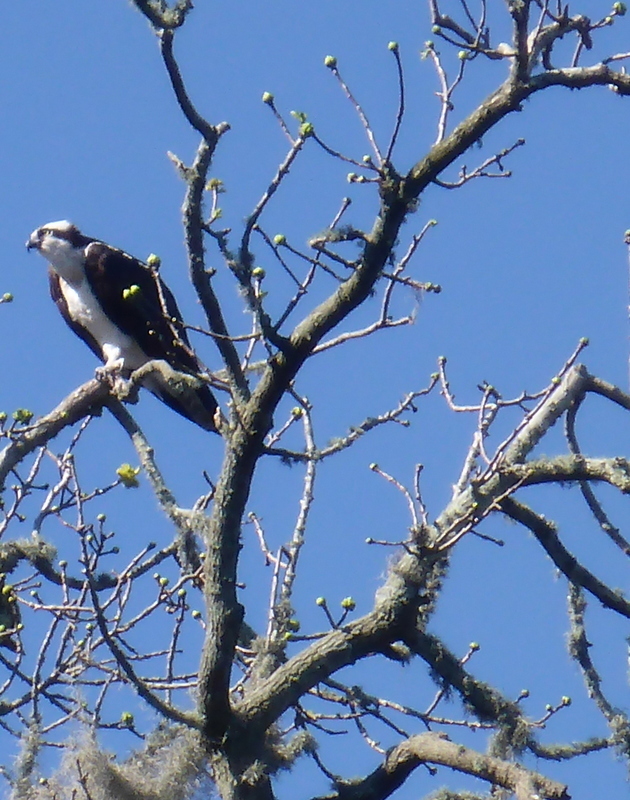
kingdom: Animalia
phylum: Chordata
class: Aves
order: Accipitriformes
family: Pandionidae
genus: Pandion
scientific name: Pandion haliaetus
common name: Osprey
